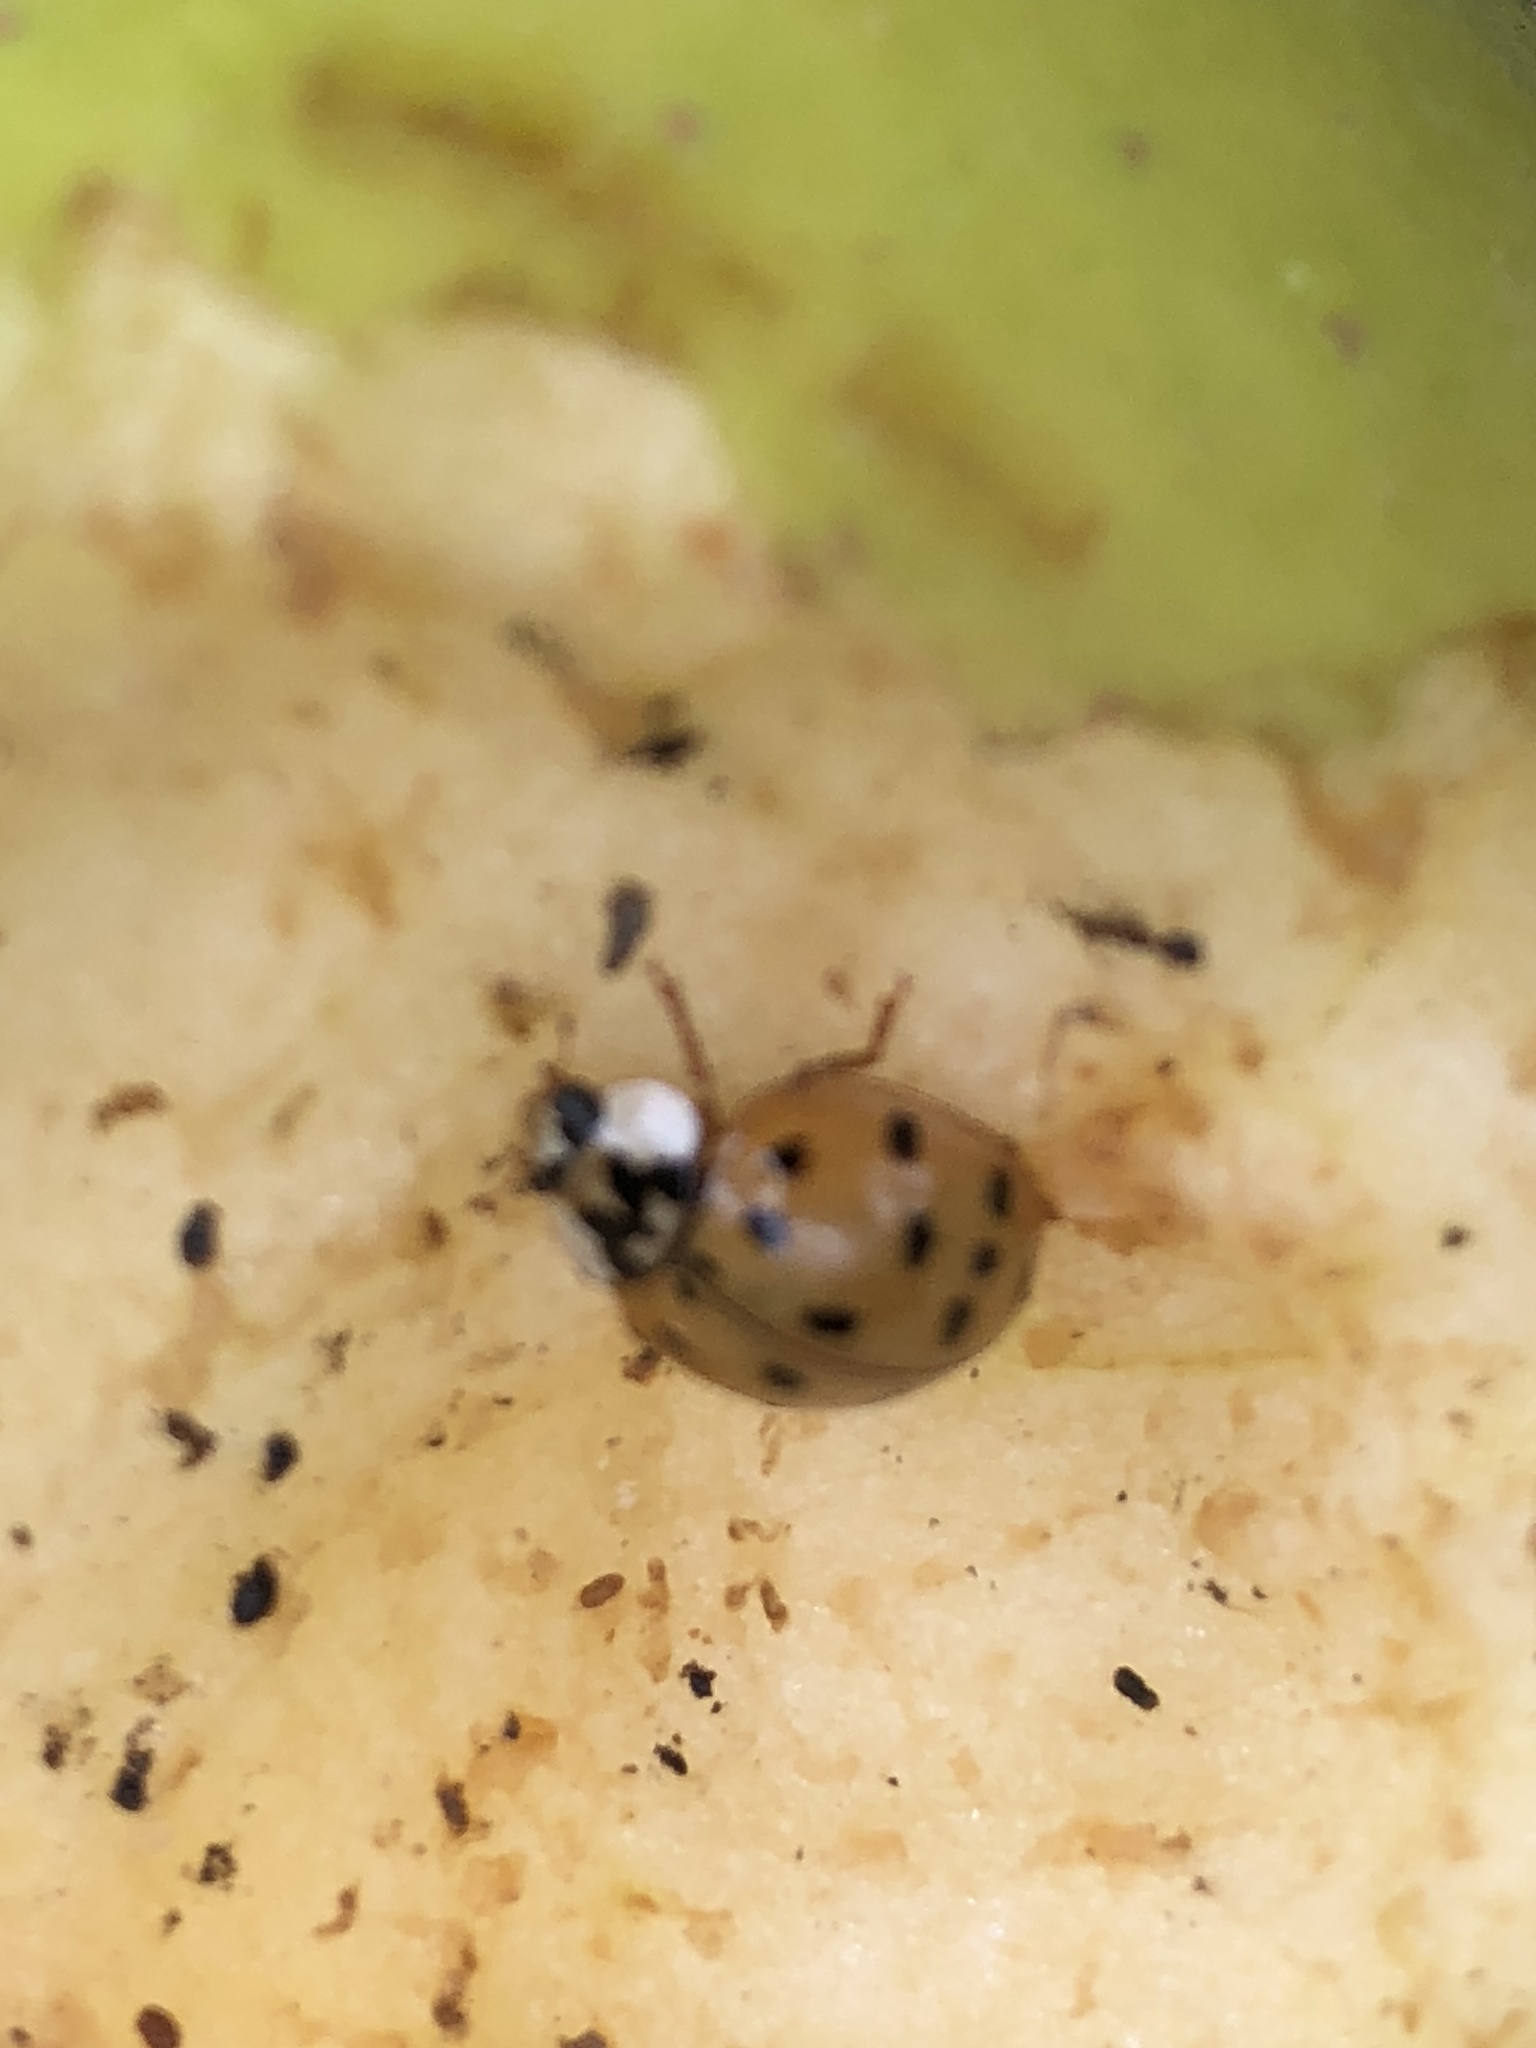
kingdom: Animalia
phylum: Arthropoda
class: Insecta
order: Coleoptera
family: Coccinellidae
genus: Harmonia
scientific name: Harmonia axyridis
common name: Harlequin ladybird
